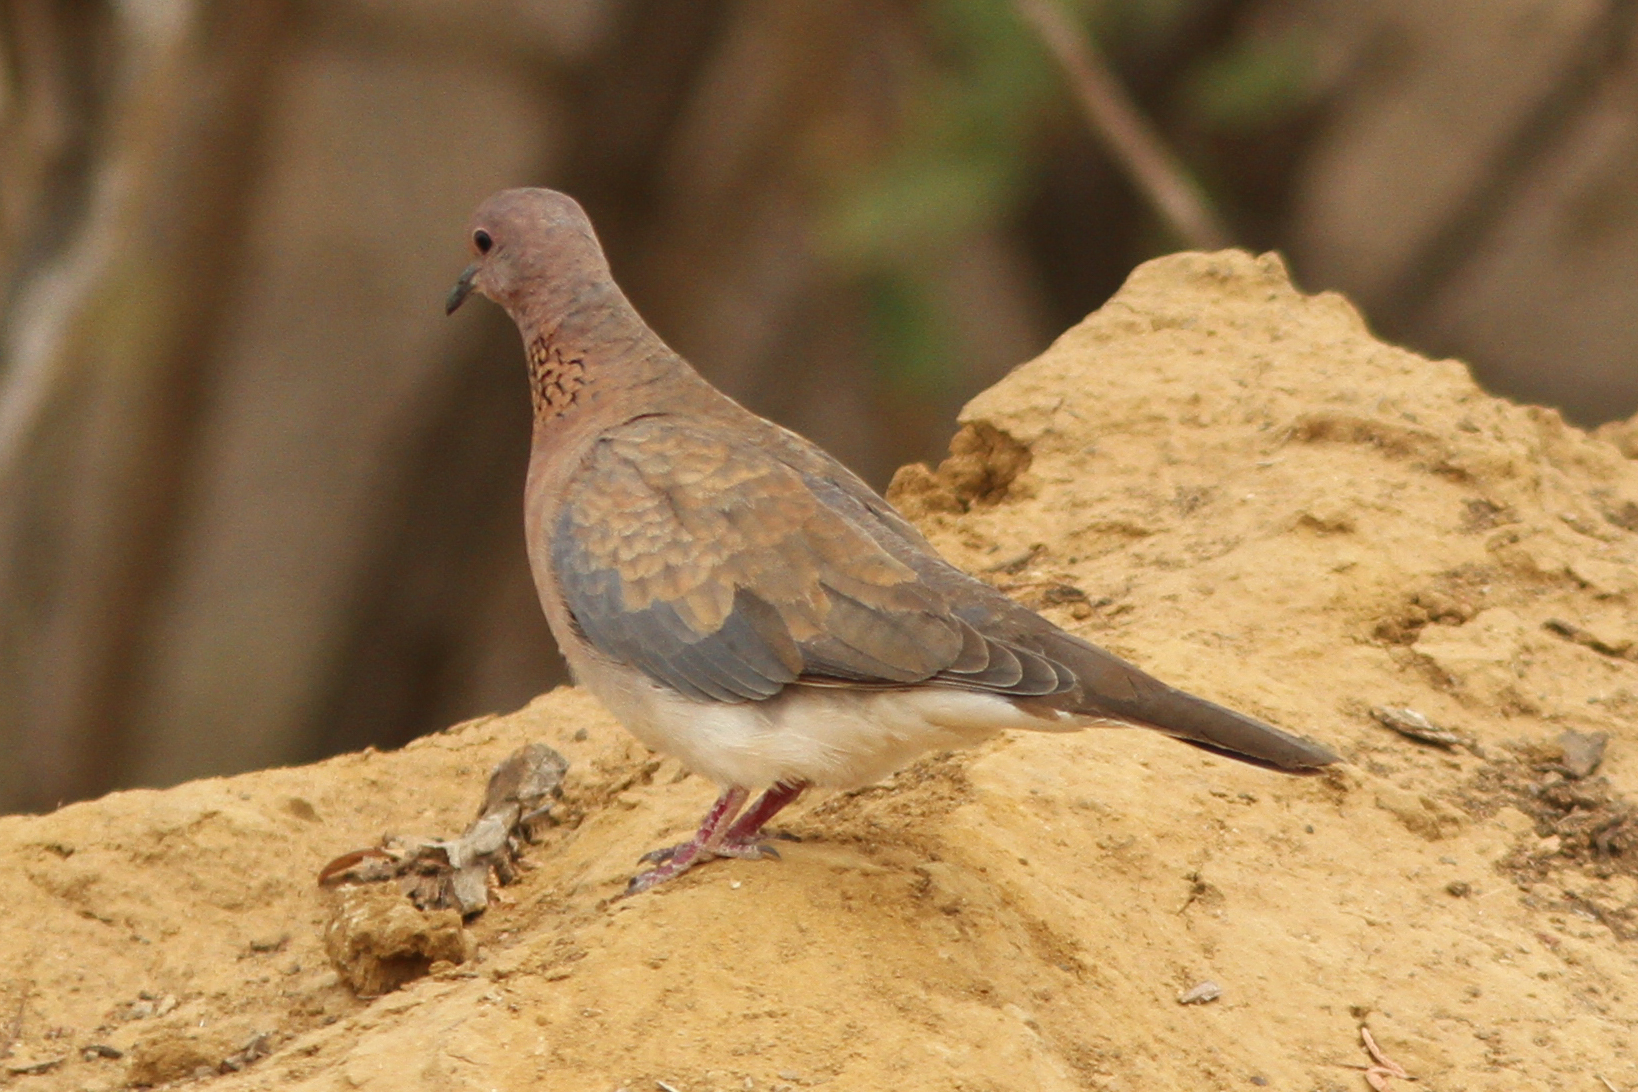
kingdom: Animalia
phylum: Chordata
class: Aves
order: Columbiformes
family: Columbidae
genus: Spilopelia
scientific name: Spilopelia senegalensis
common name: Laughing dove
